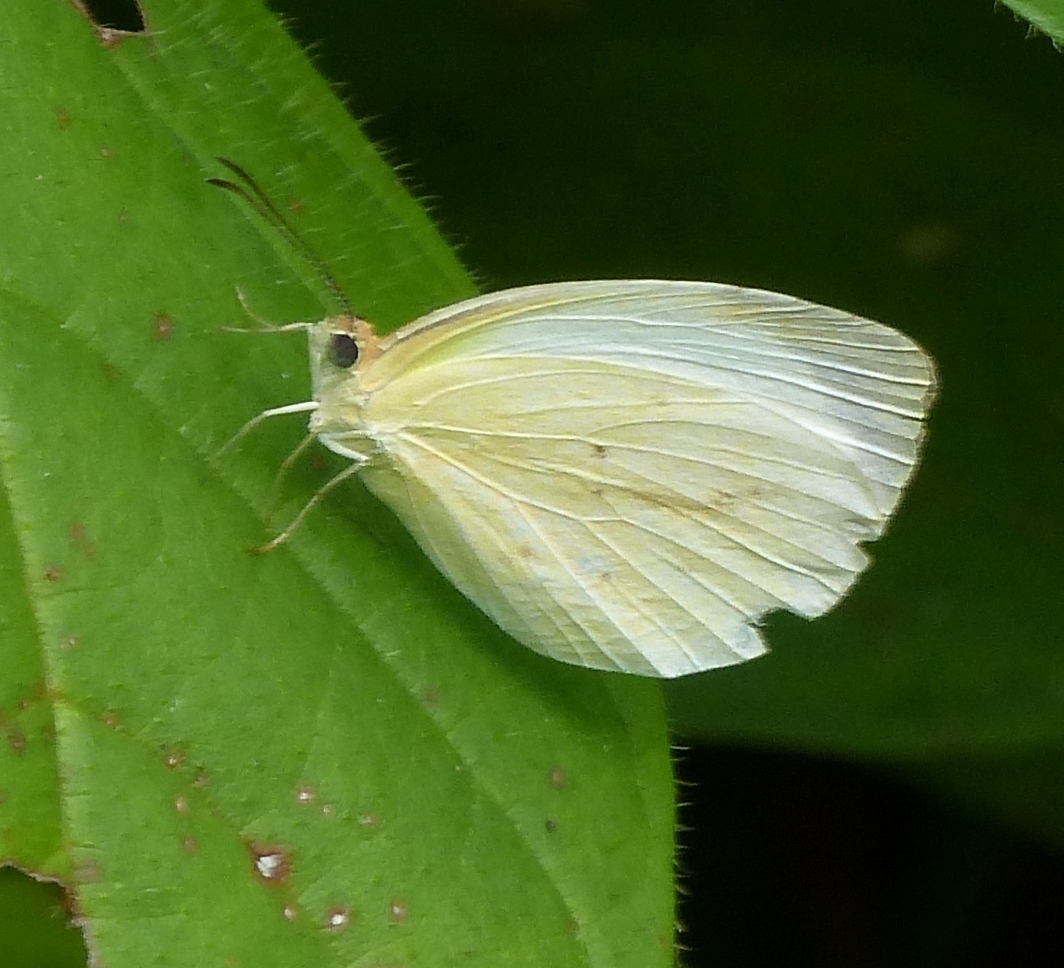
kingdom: Animalia
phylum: Arthropoda
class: Insecta
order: Lepidoptera
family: Pieridae
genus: Abaeis
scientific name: Abaeis albula
